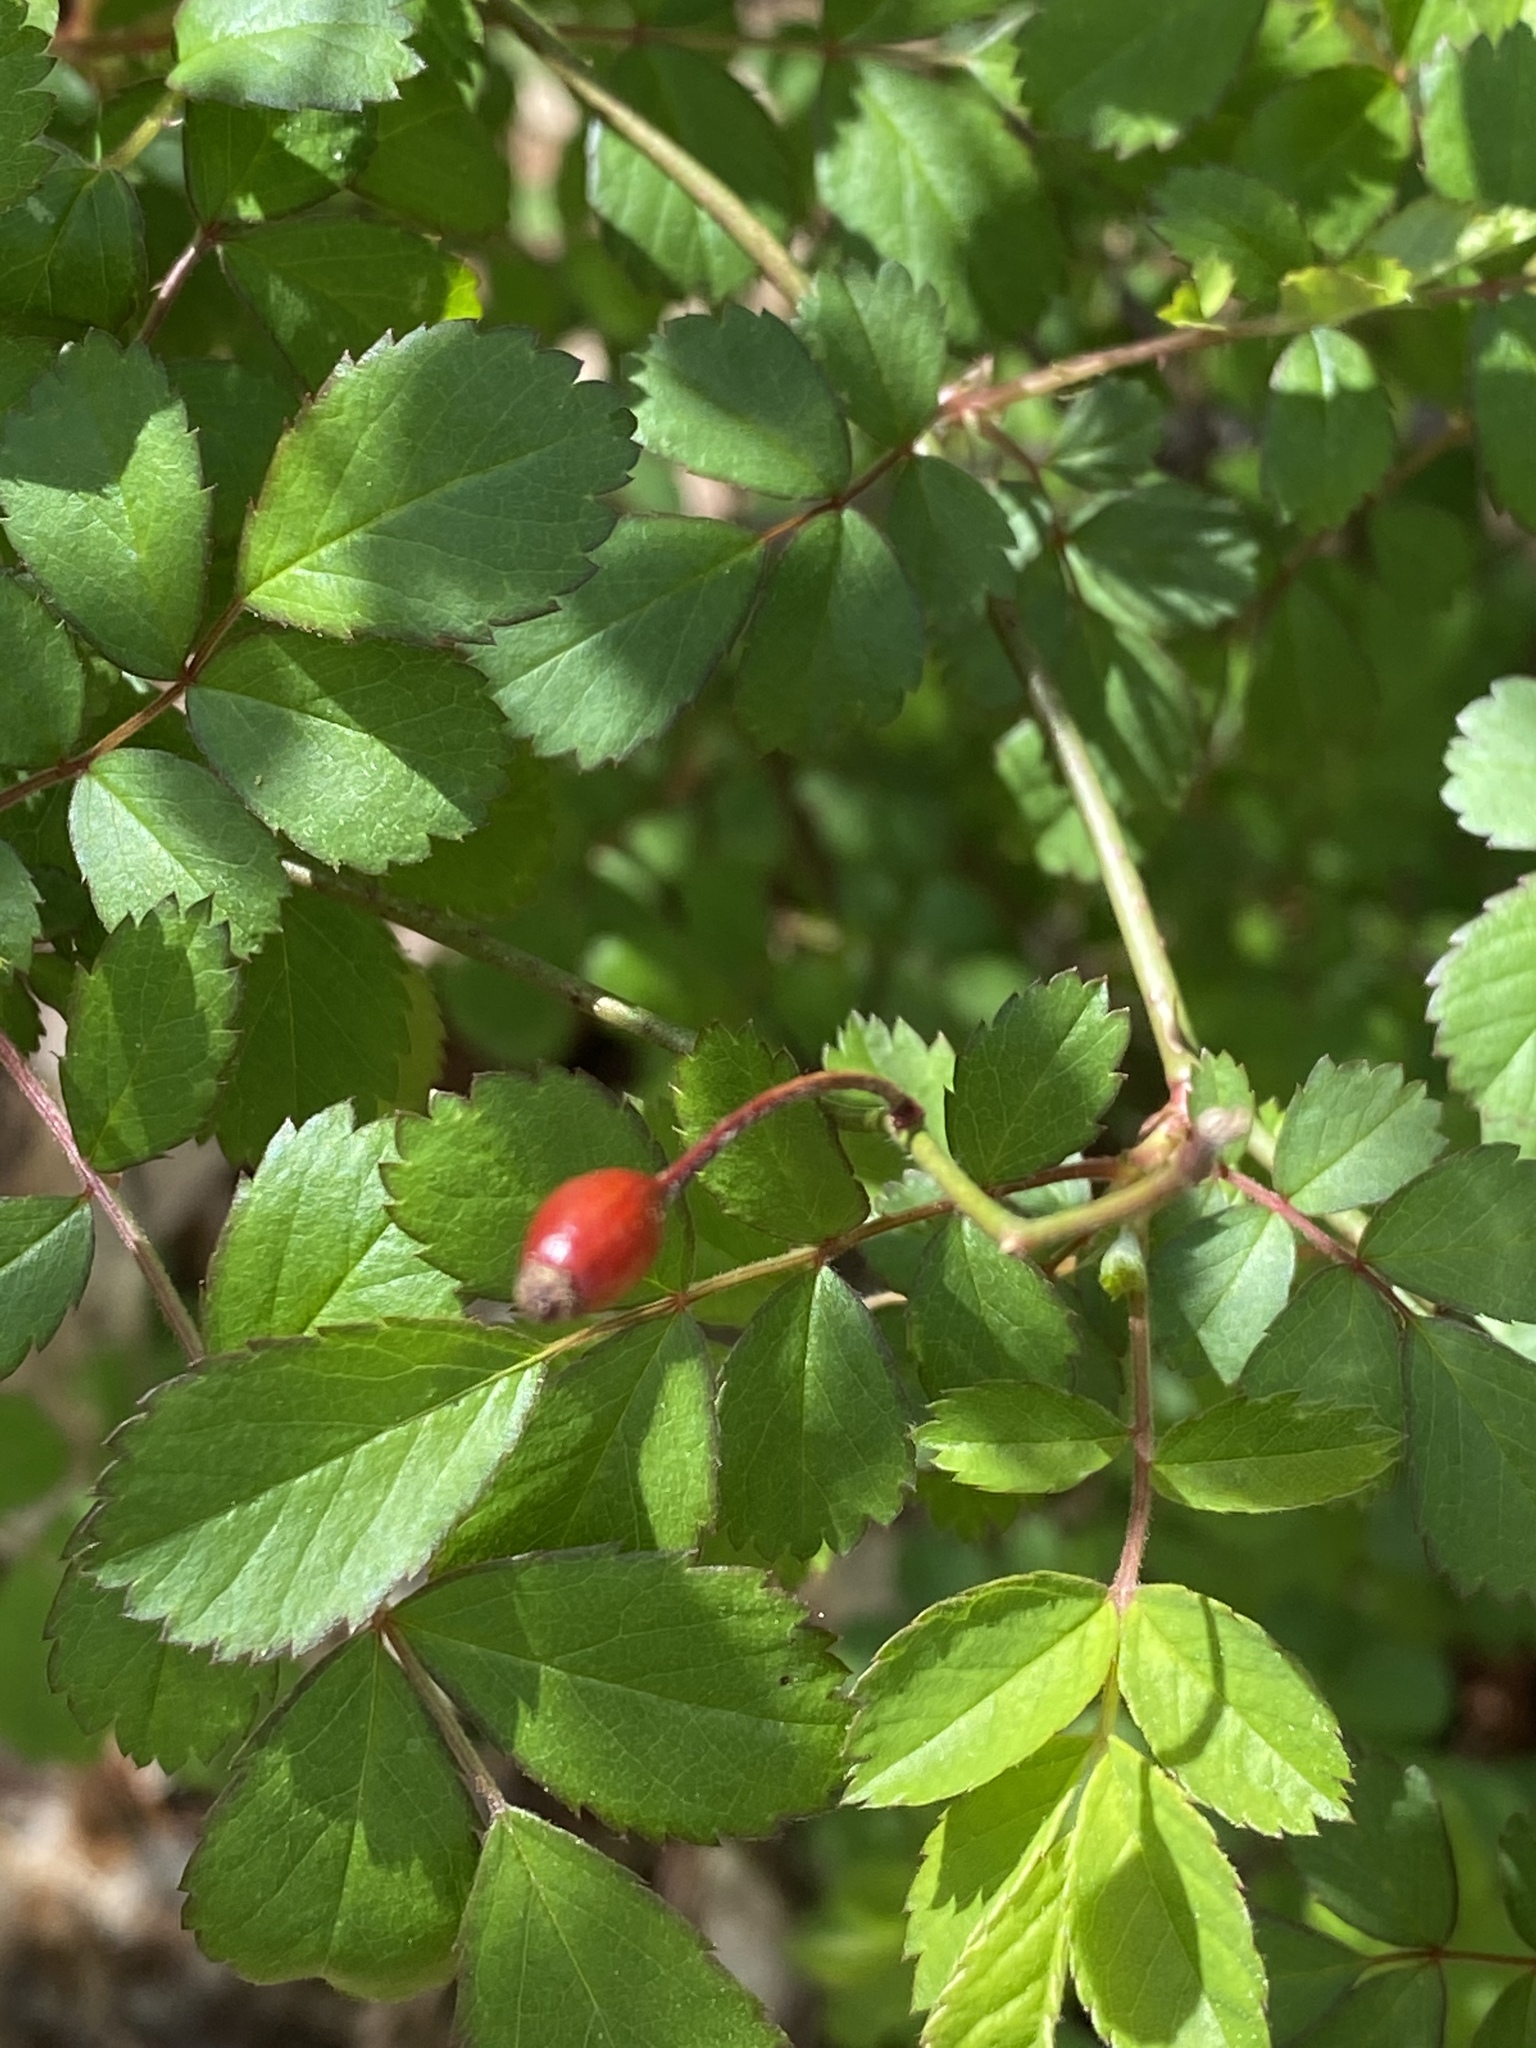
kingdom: Plantae
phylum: Tracheophyta
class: Magnoliopsida
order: Rosales
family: Rosaceae
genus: Rosa
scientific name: Rosa multiflora
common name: Multiflora rose
